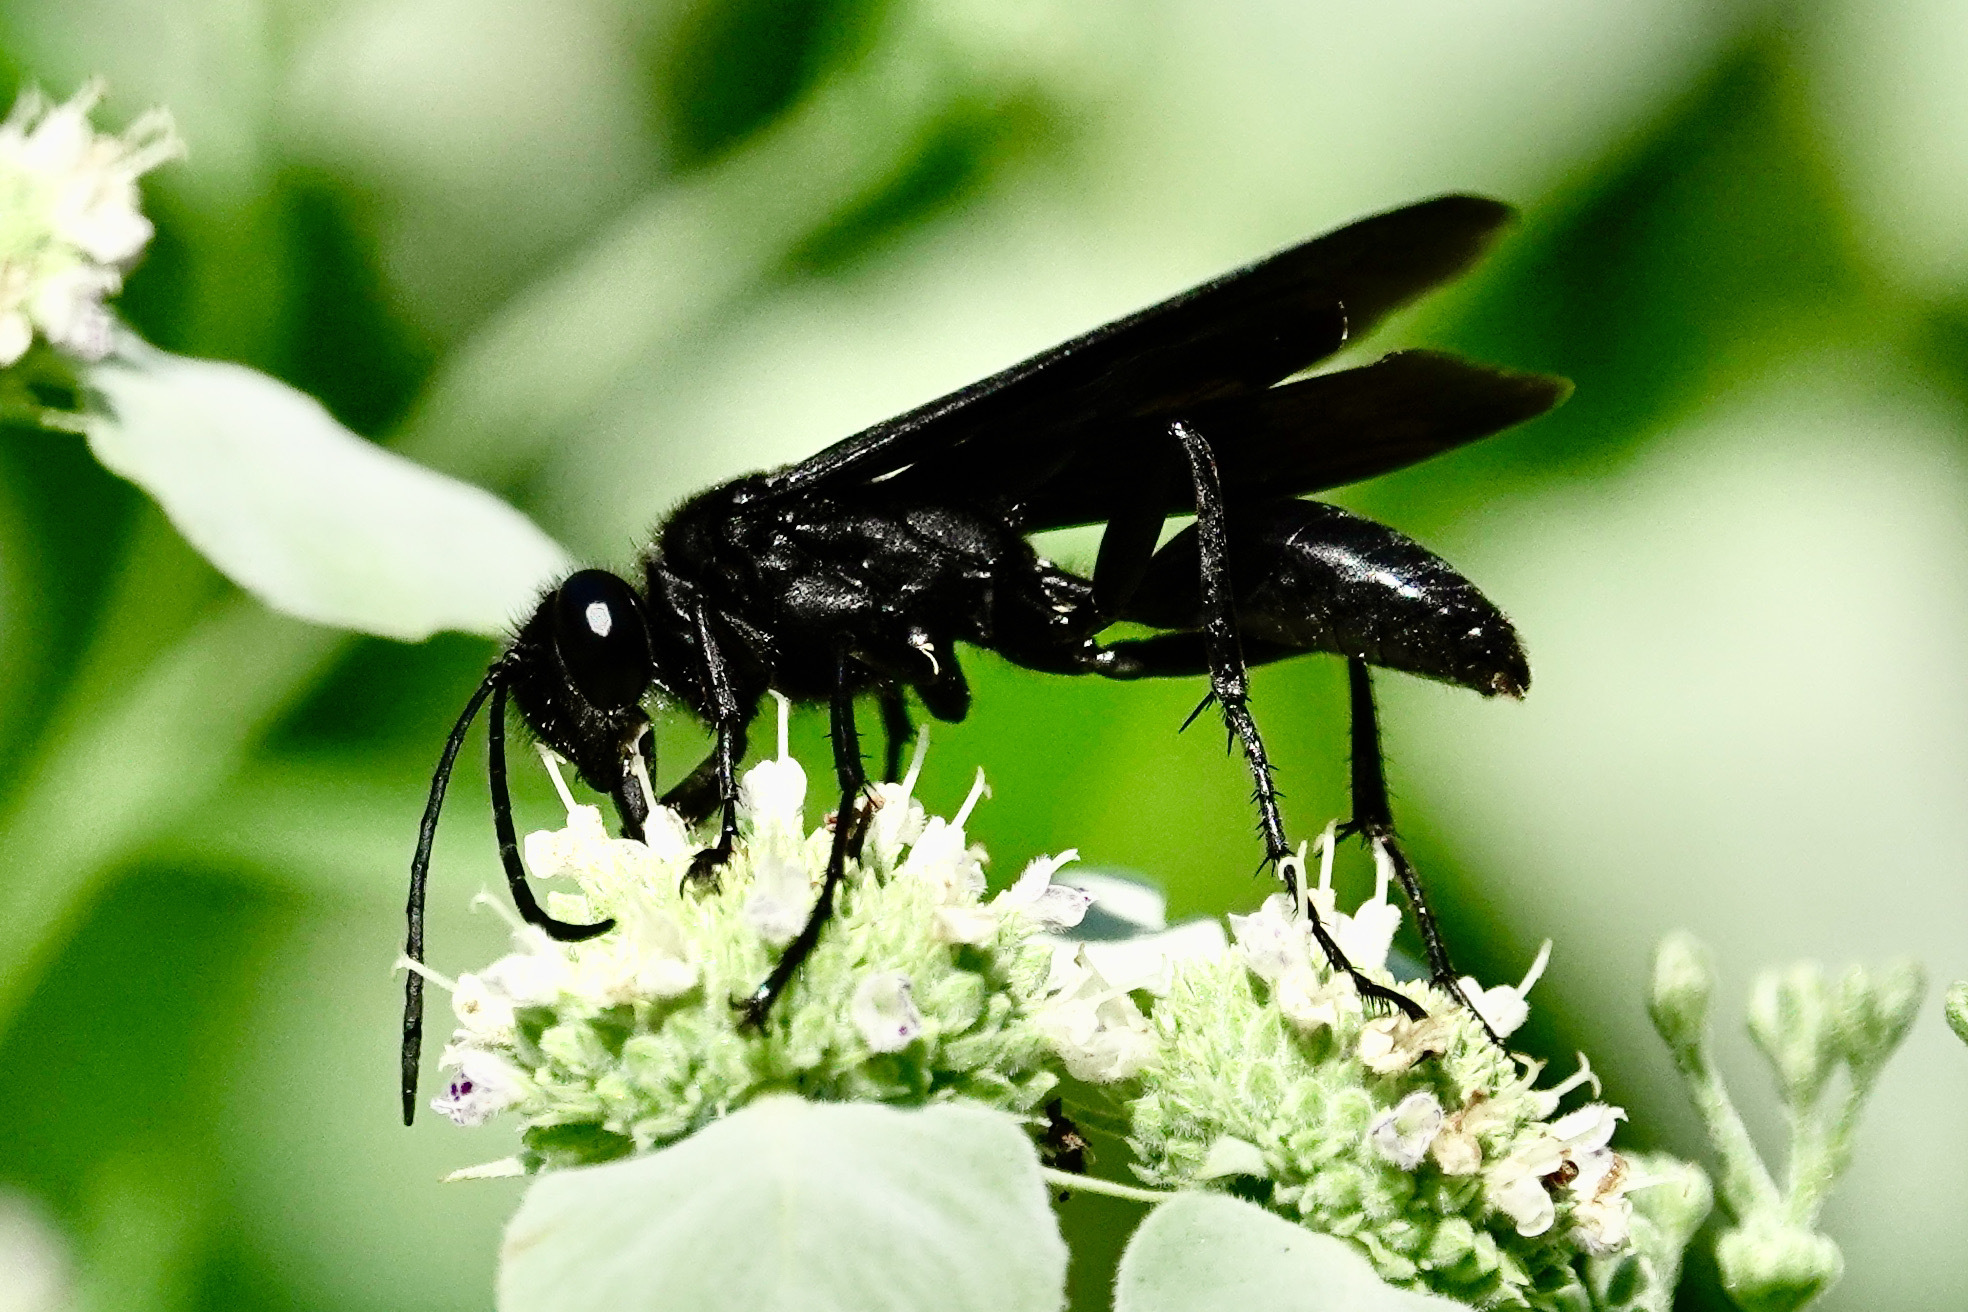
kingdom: Animalia
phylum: Arthropoda
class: Insecta
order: Hymenoptera
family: Sphecidae
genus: Sphex
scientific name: Sphex pensylvanicus
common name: Great black digger wasp
